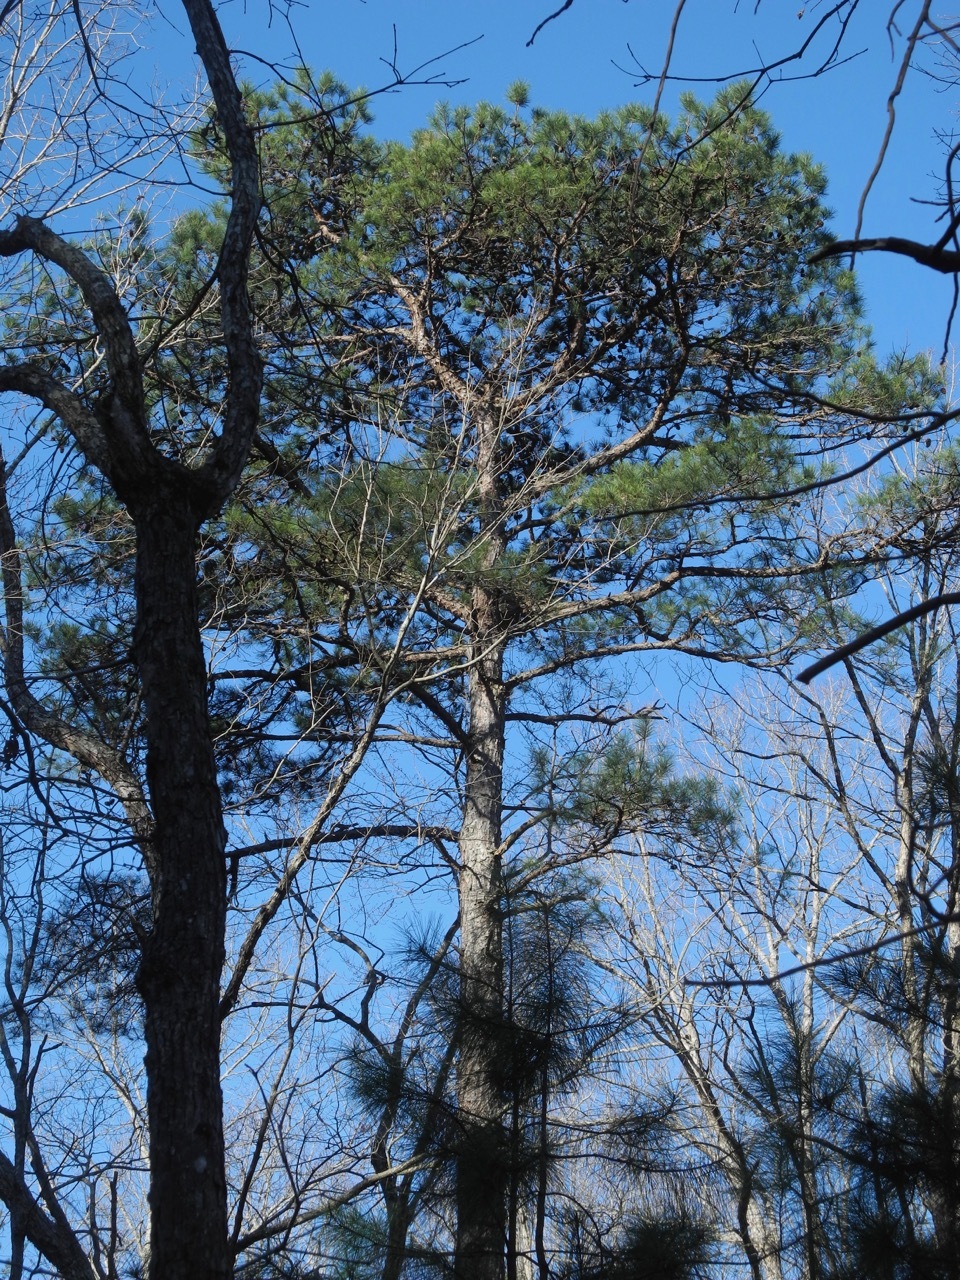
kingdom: Plantae
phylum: Tracheophyta
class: Pinopsida
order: Pinales
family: Pinaceae
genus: Pinus
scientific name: Pinus taeda
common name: Loblolly pine
